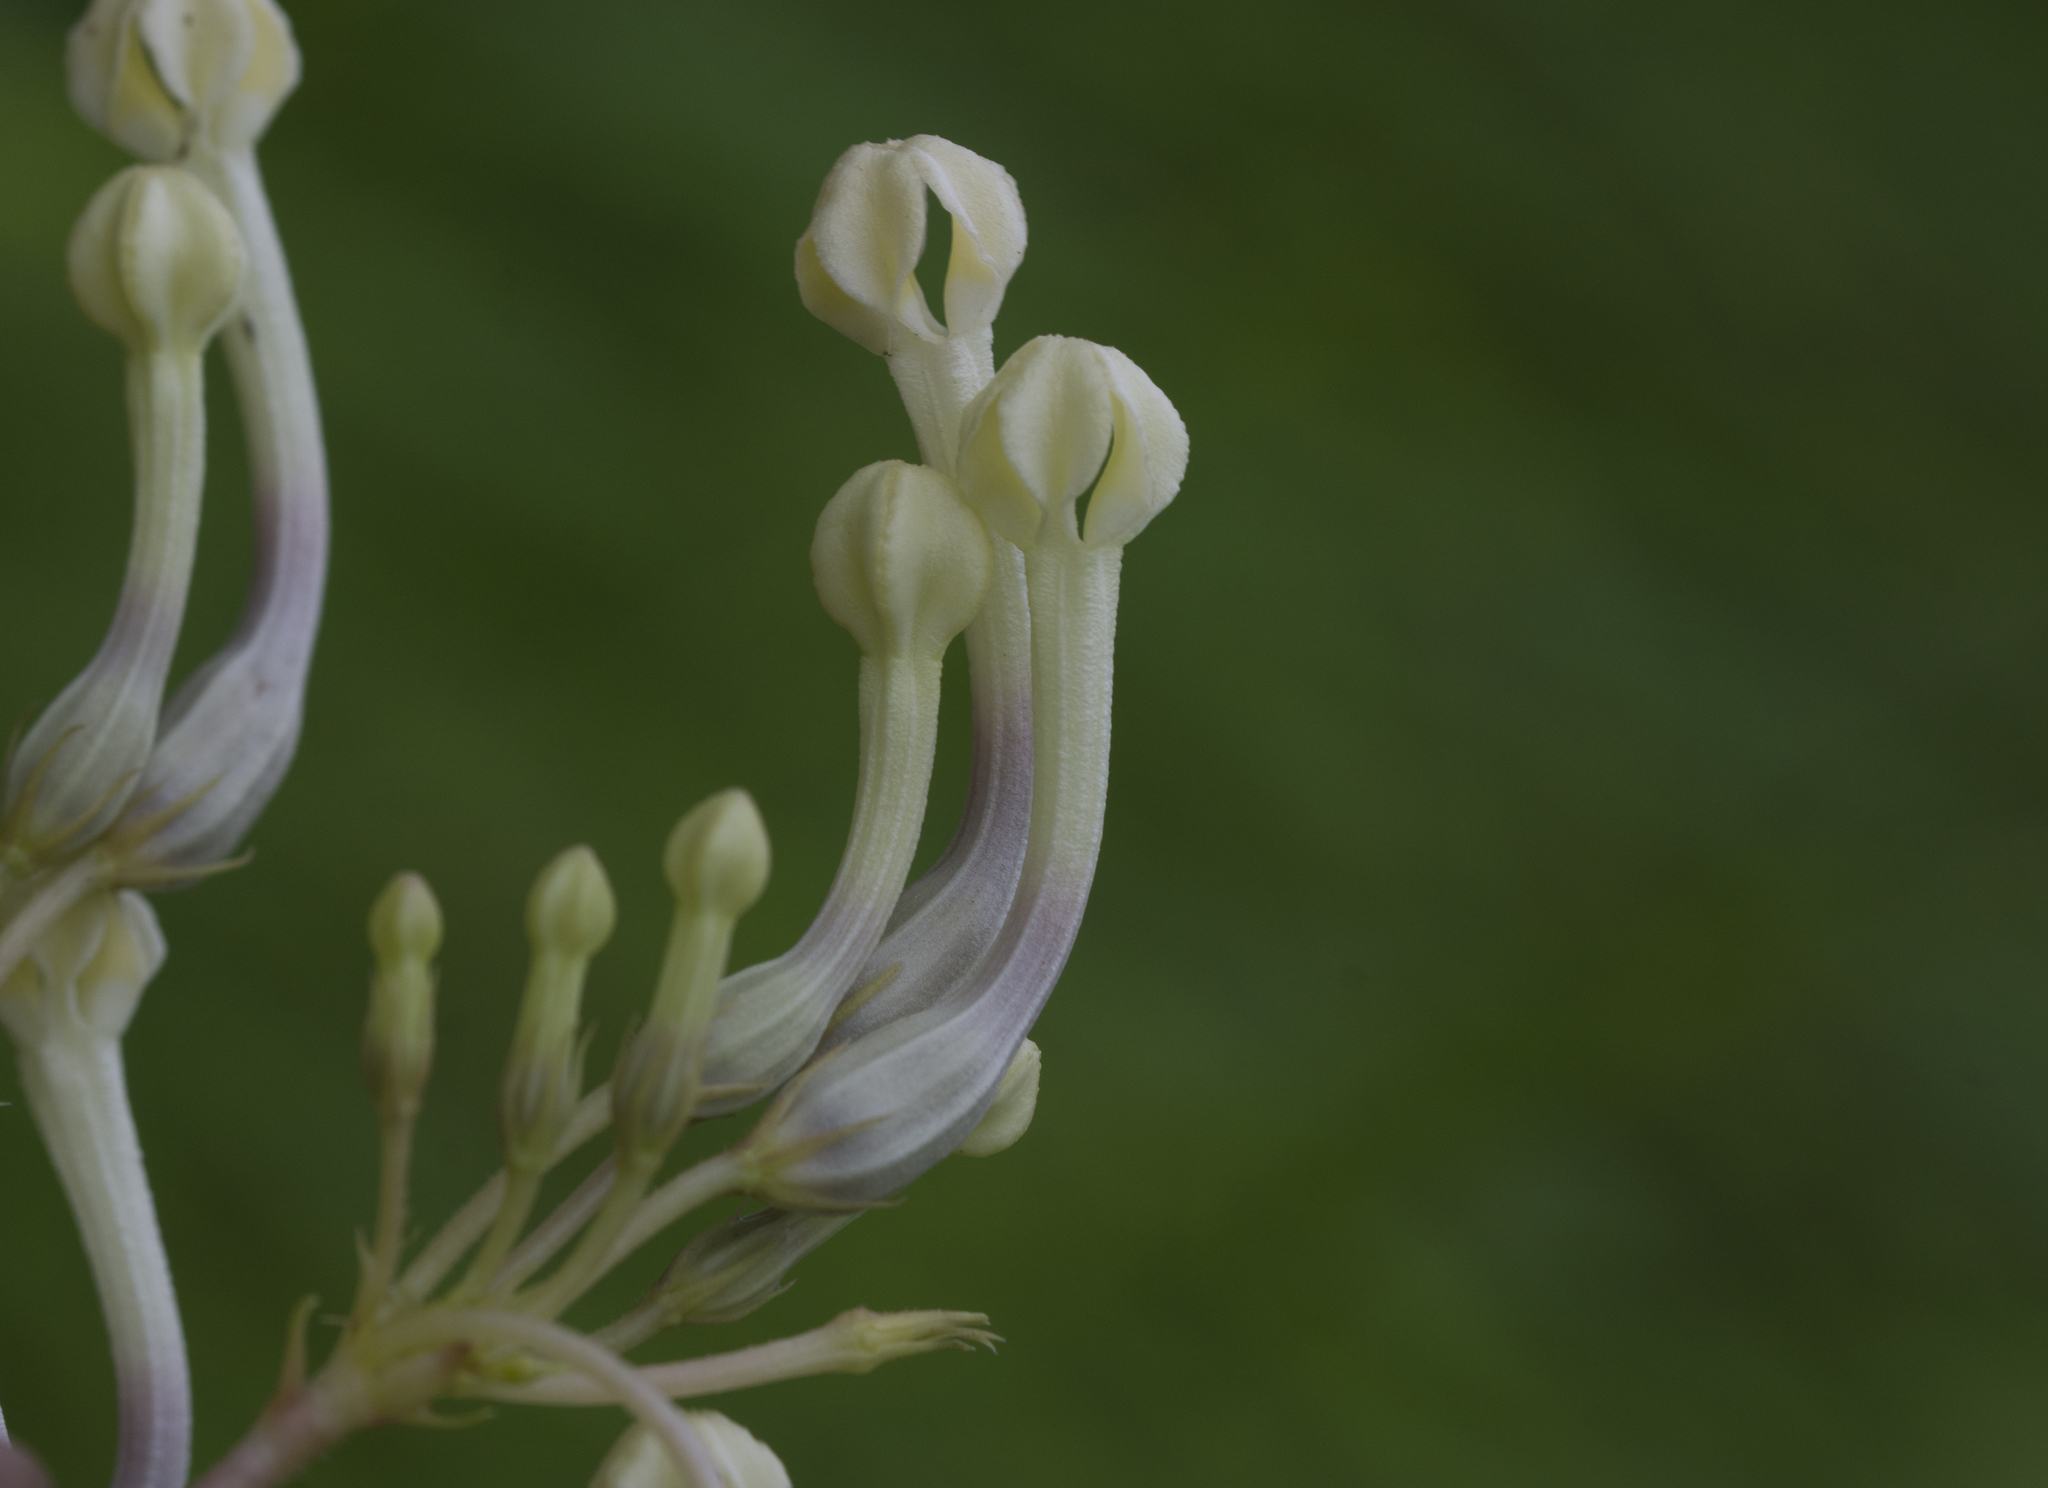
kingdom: Plantae
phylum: Tracheophyta
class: Magnoliopsida
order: Gentianales
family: Apocynaceae
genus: Ceropegia
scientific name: Ceropegia lawii
